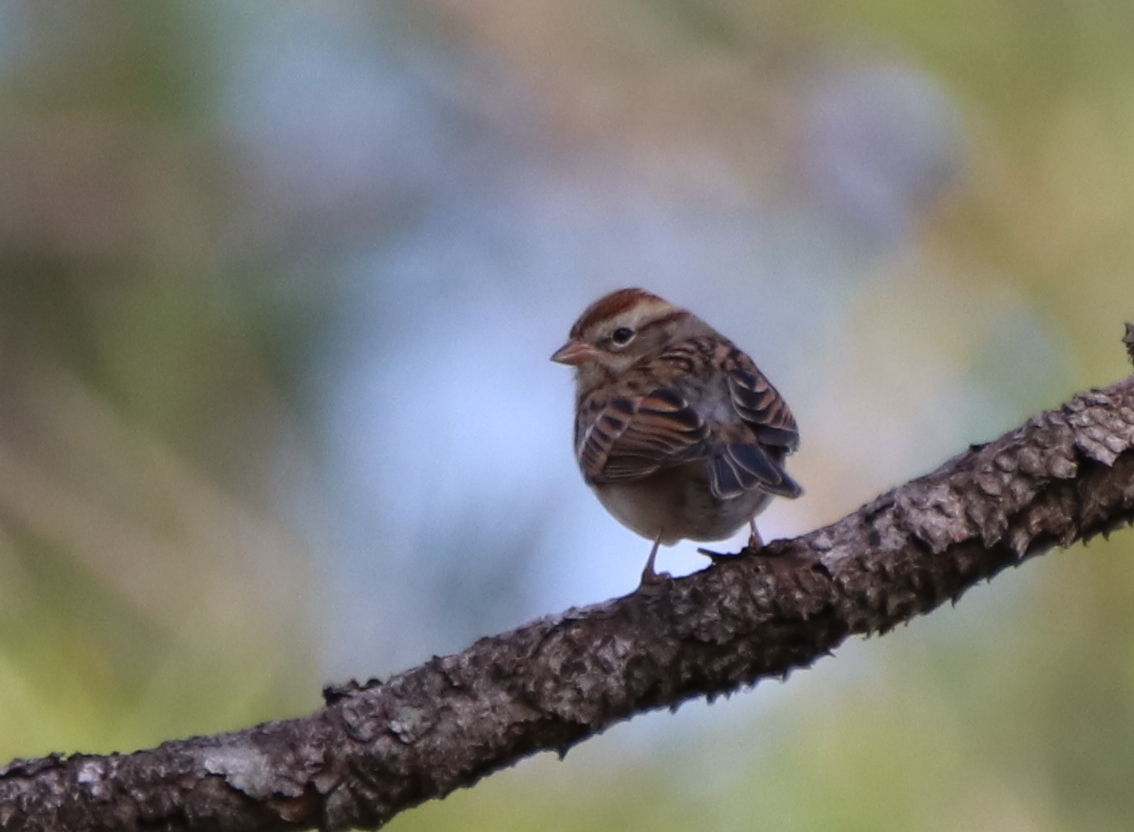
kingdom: Animalia
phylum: Chordata
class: Aves
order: Passeriformes
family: Passerellidae
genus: Spizella
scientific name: Spizella passerina
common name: Chipping sparrow
